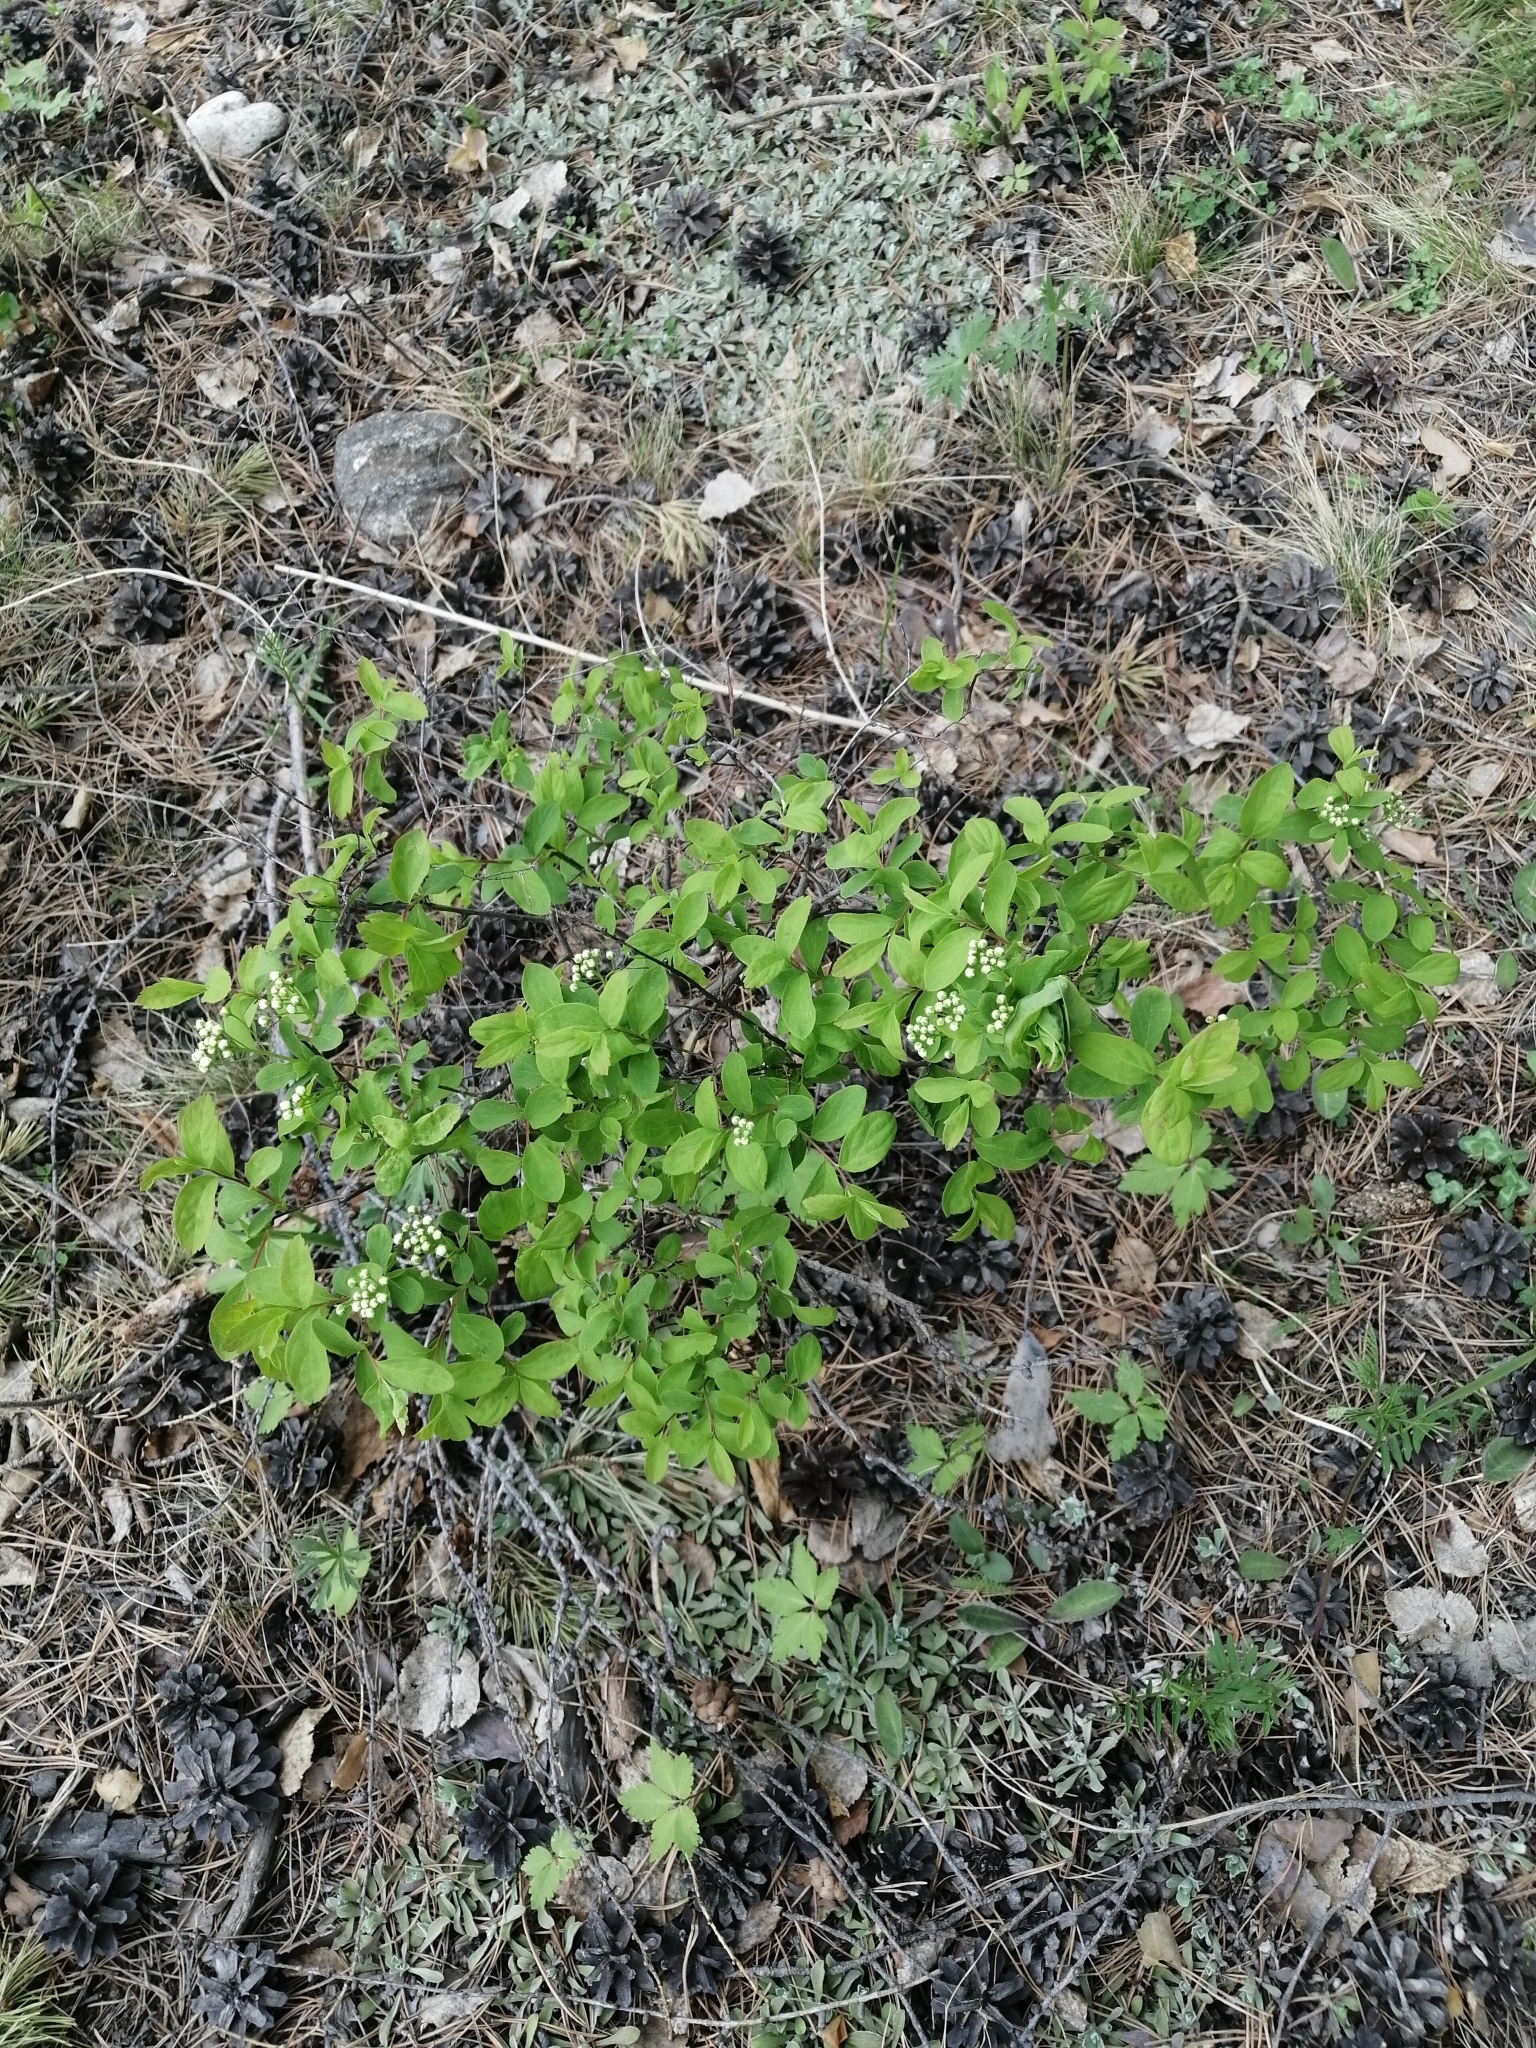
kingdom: Plantae
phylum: Tracheophyta
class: Magnoliopsida
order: Rosales
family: Rosaceae
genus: Spiraea
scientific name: Spiraea media
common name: Russian spiraea
